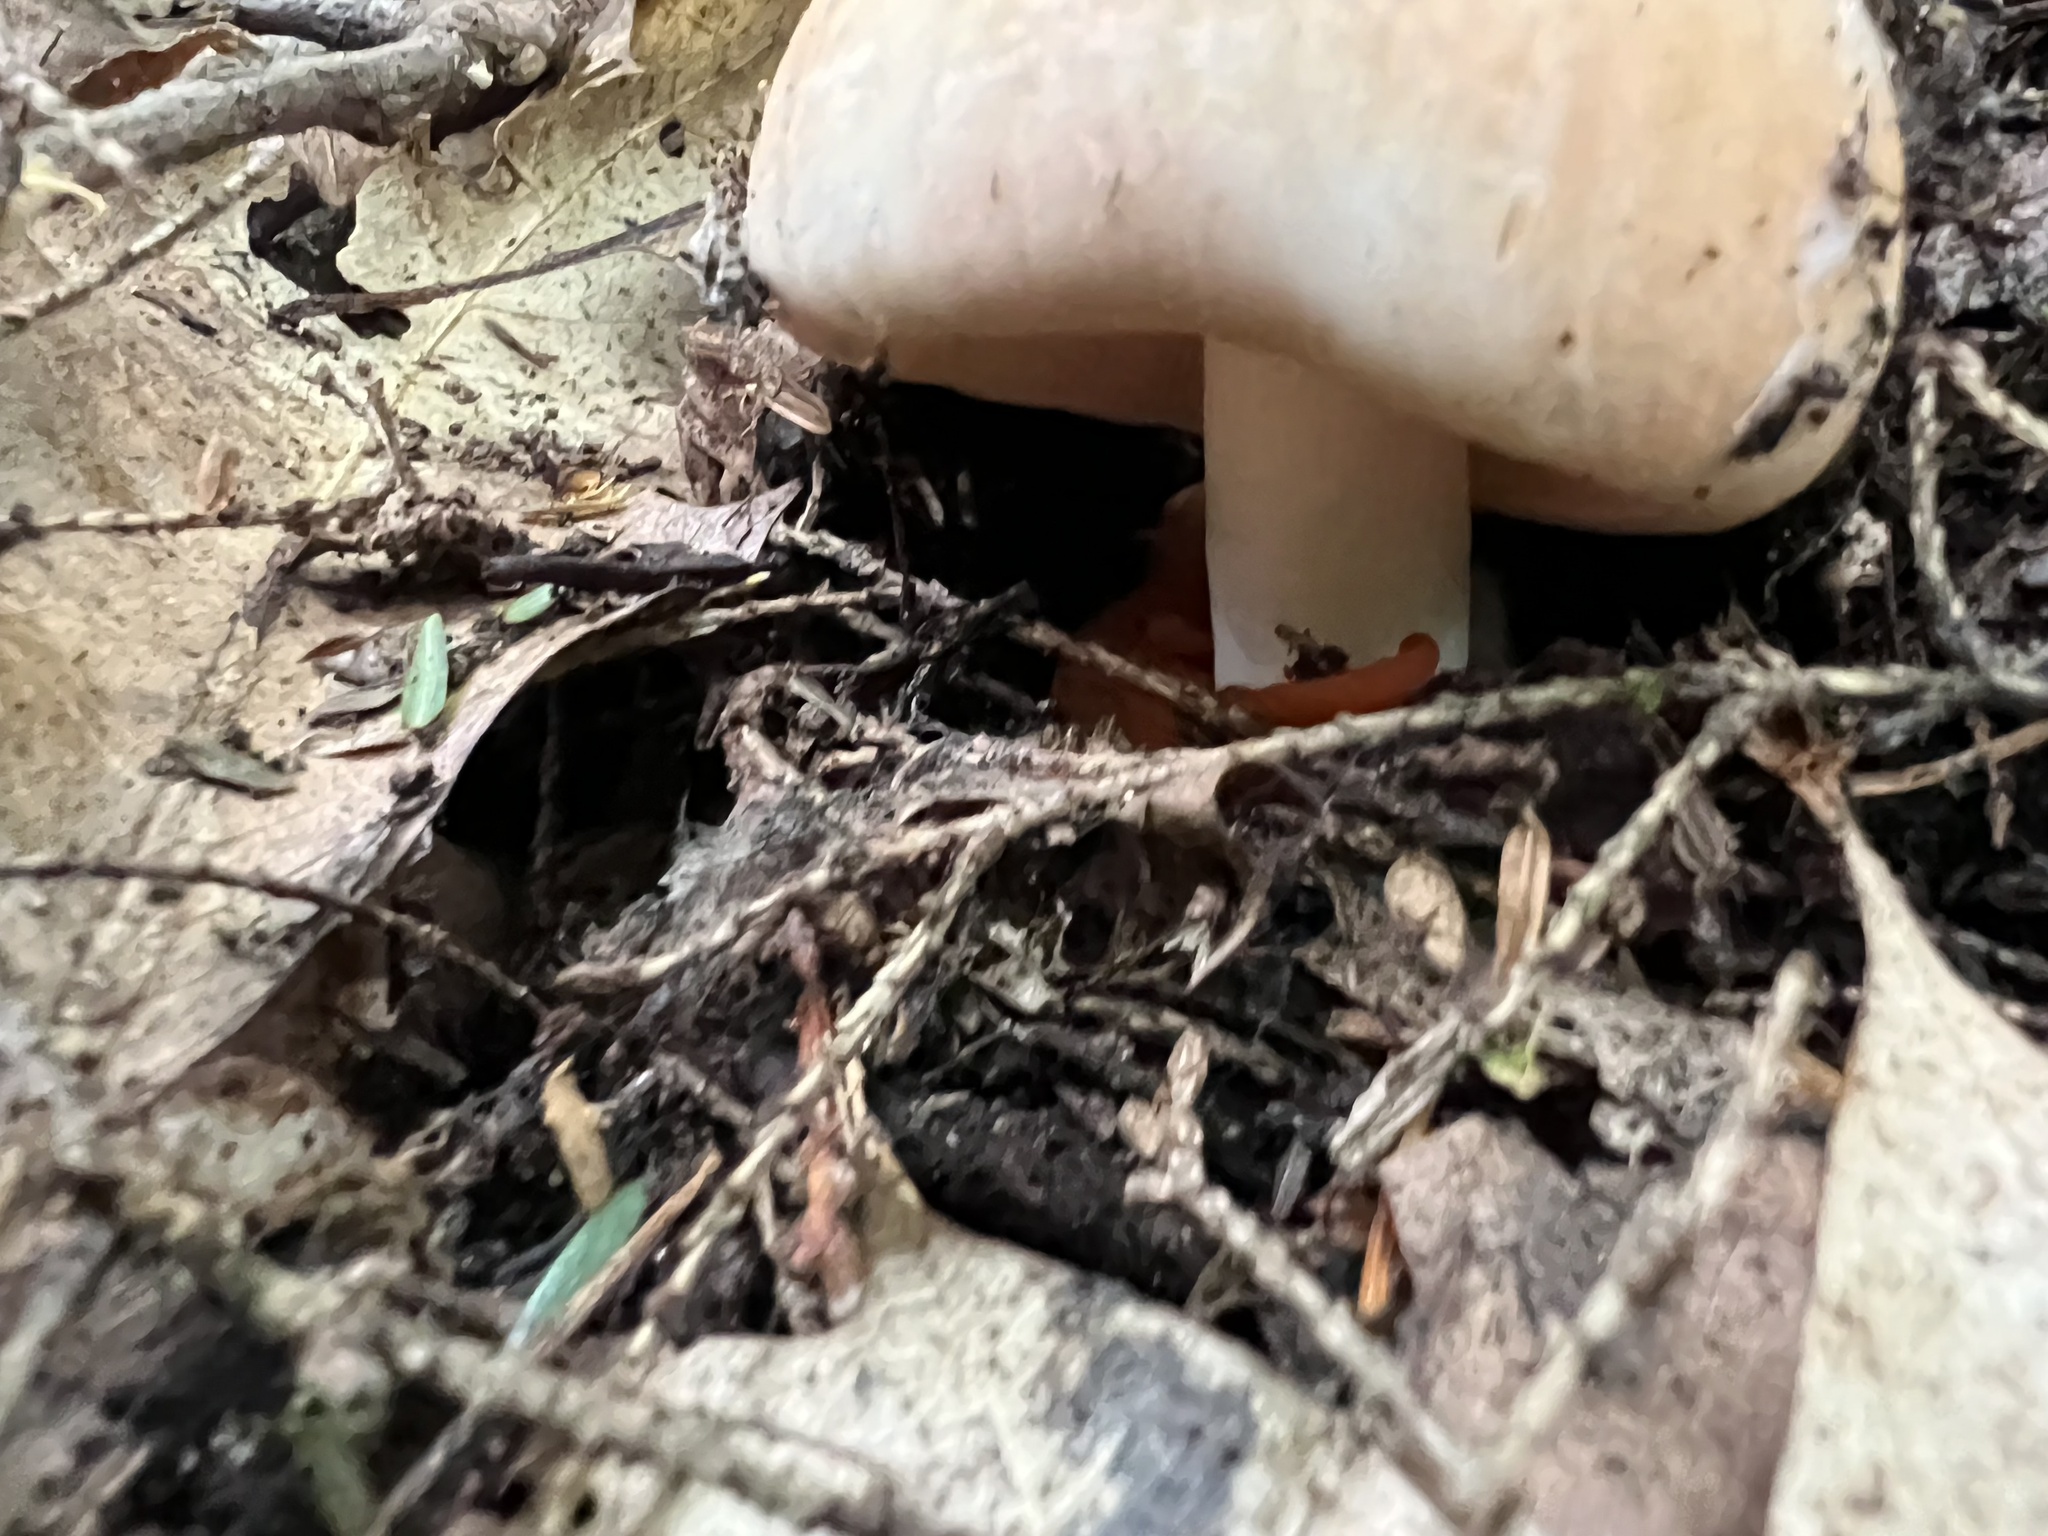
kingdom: Animalia
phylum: Chordata
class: Amphibia
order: Caudata
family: Salamandridae
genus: Notophthalmus
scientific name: Notophthalmus viridescens
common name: Eastern newt
